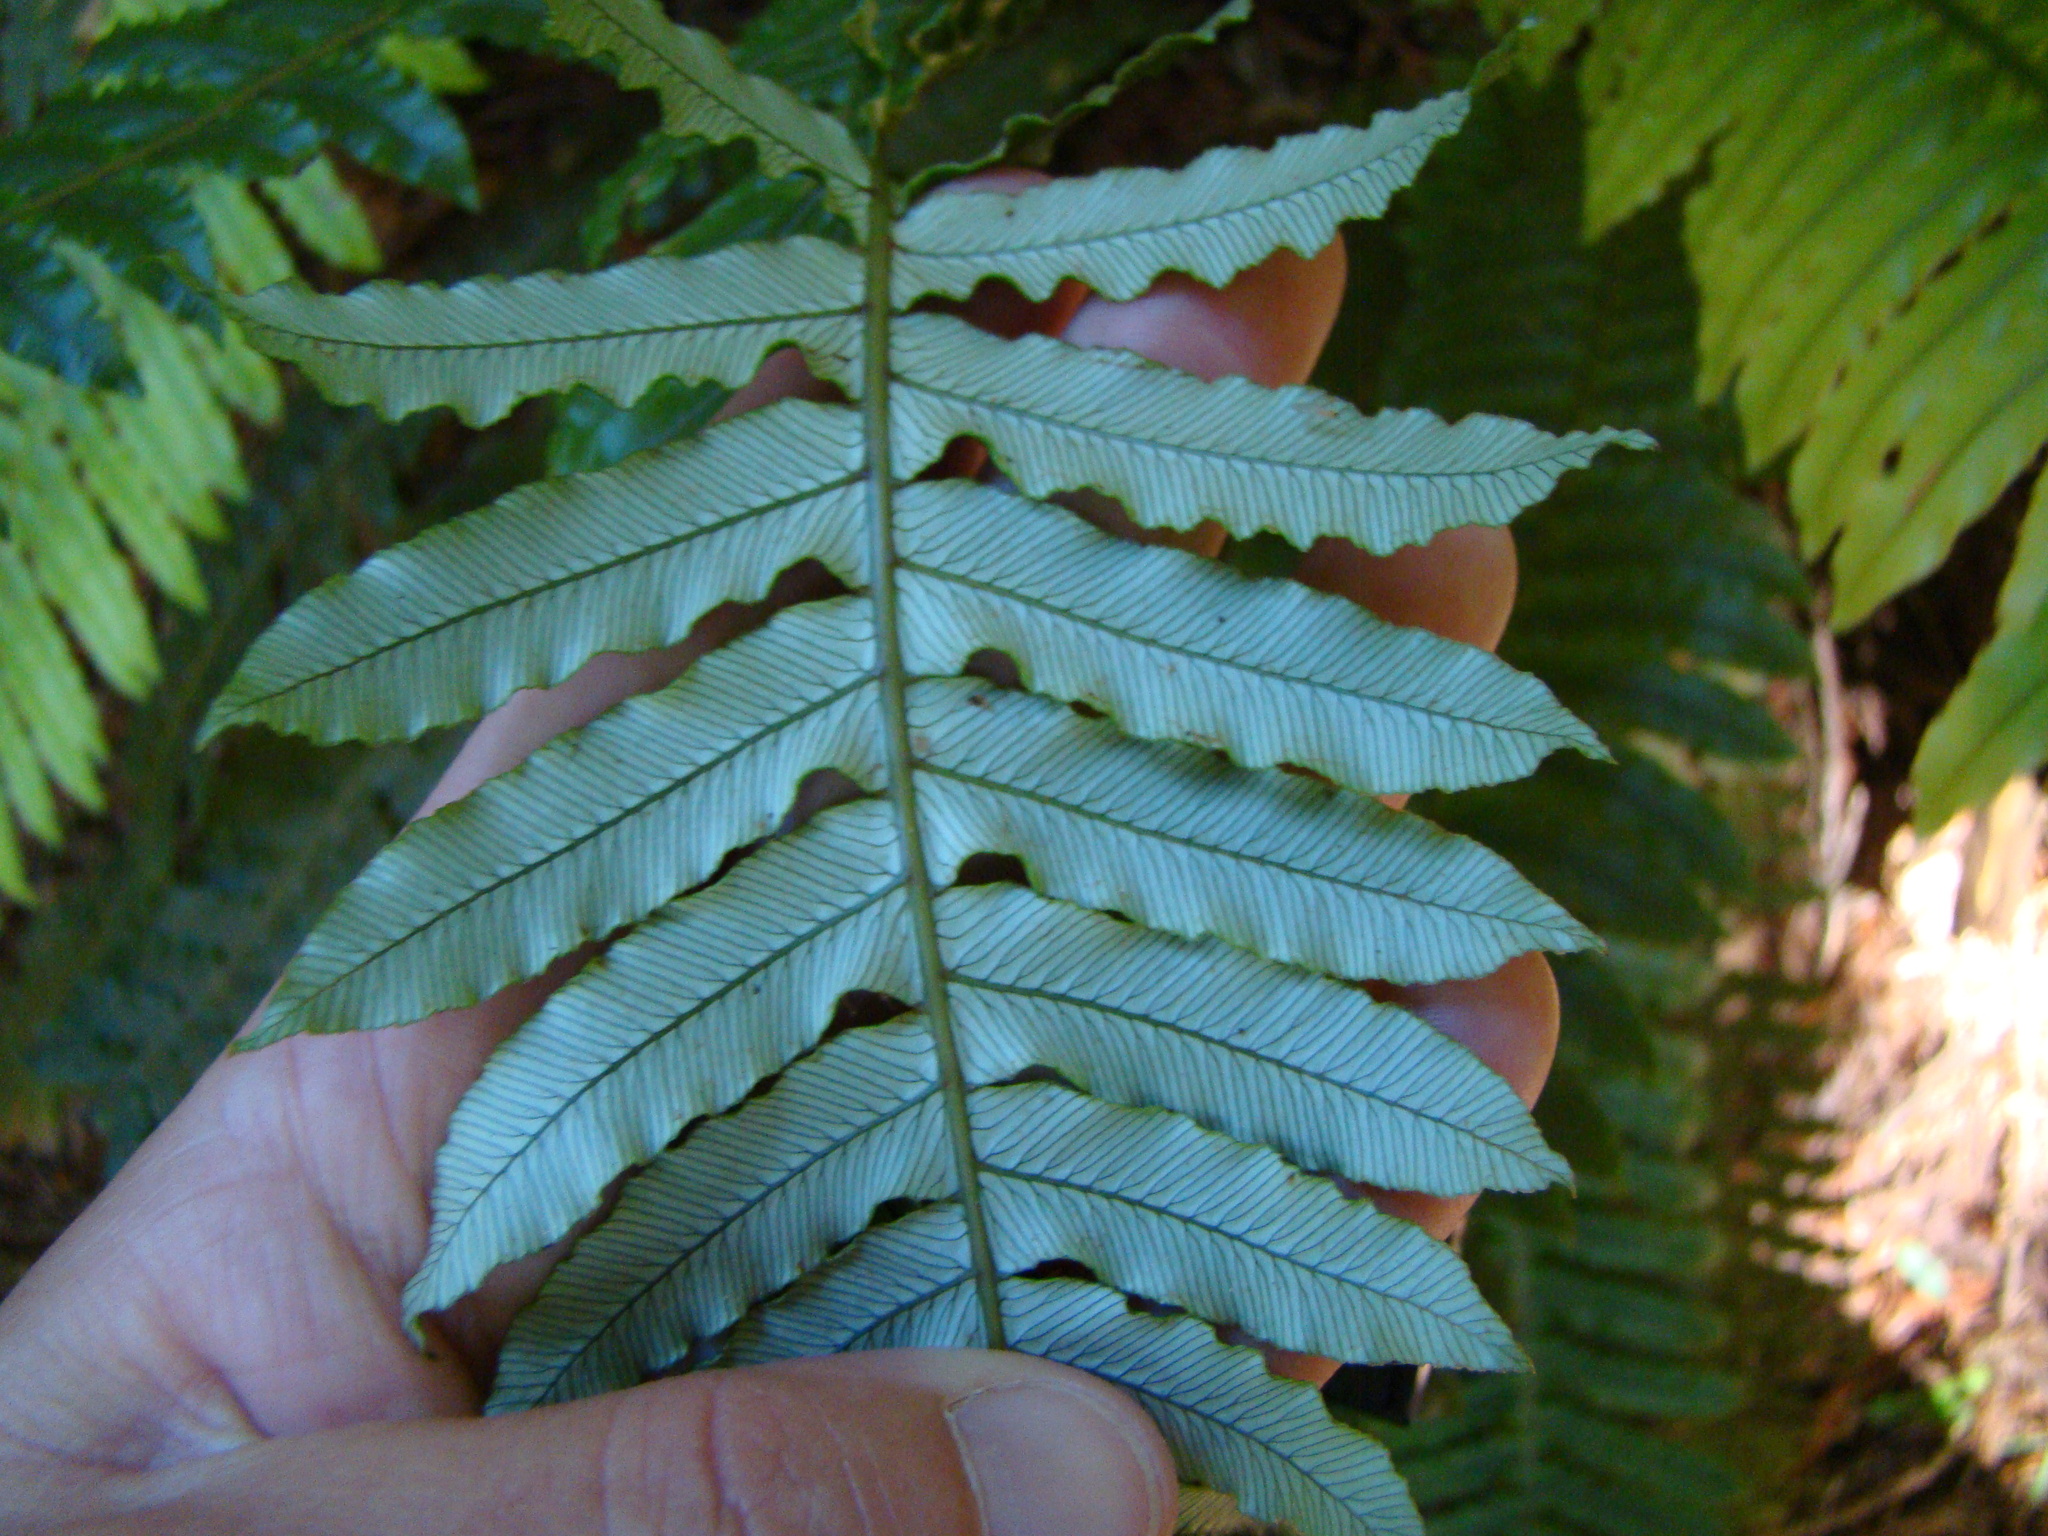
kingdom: Plantae
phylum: Tracheophyta
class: Polypodiopsida
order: Polypodiales
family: Blechnaceae
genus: Lomaria
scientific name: Lomaria discolor
